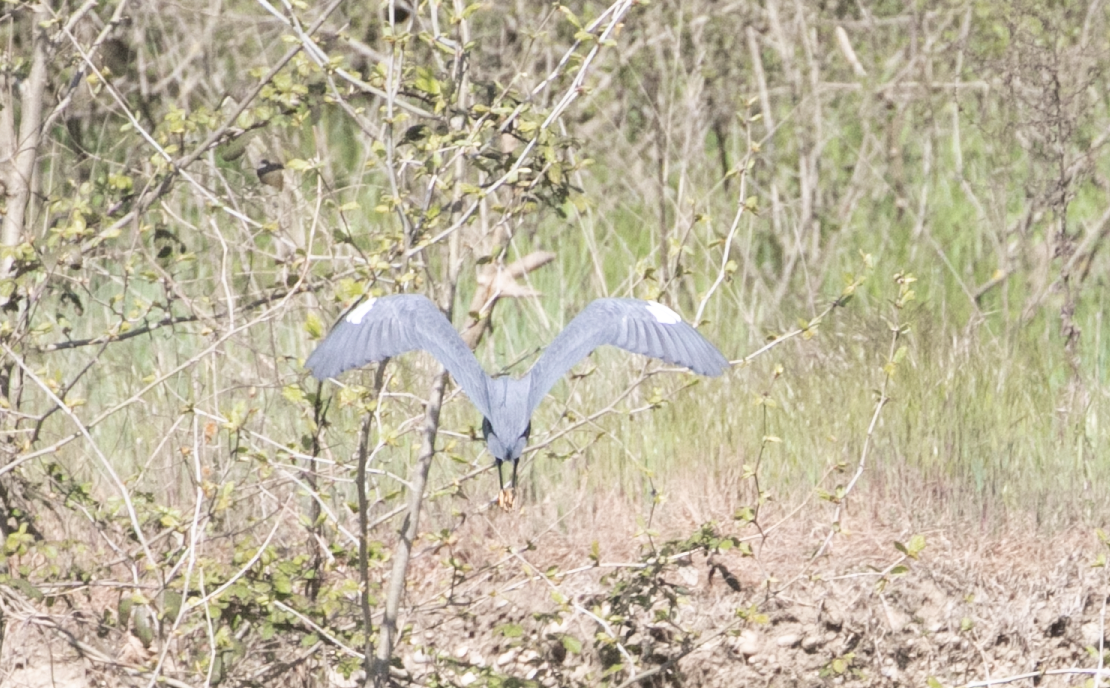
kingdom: Animalia
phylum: Chordata
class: Aves
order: Pelecaniformes
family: Ardeidae
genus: Egretta
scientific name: Egretta gularis
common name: Western reef-heron
